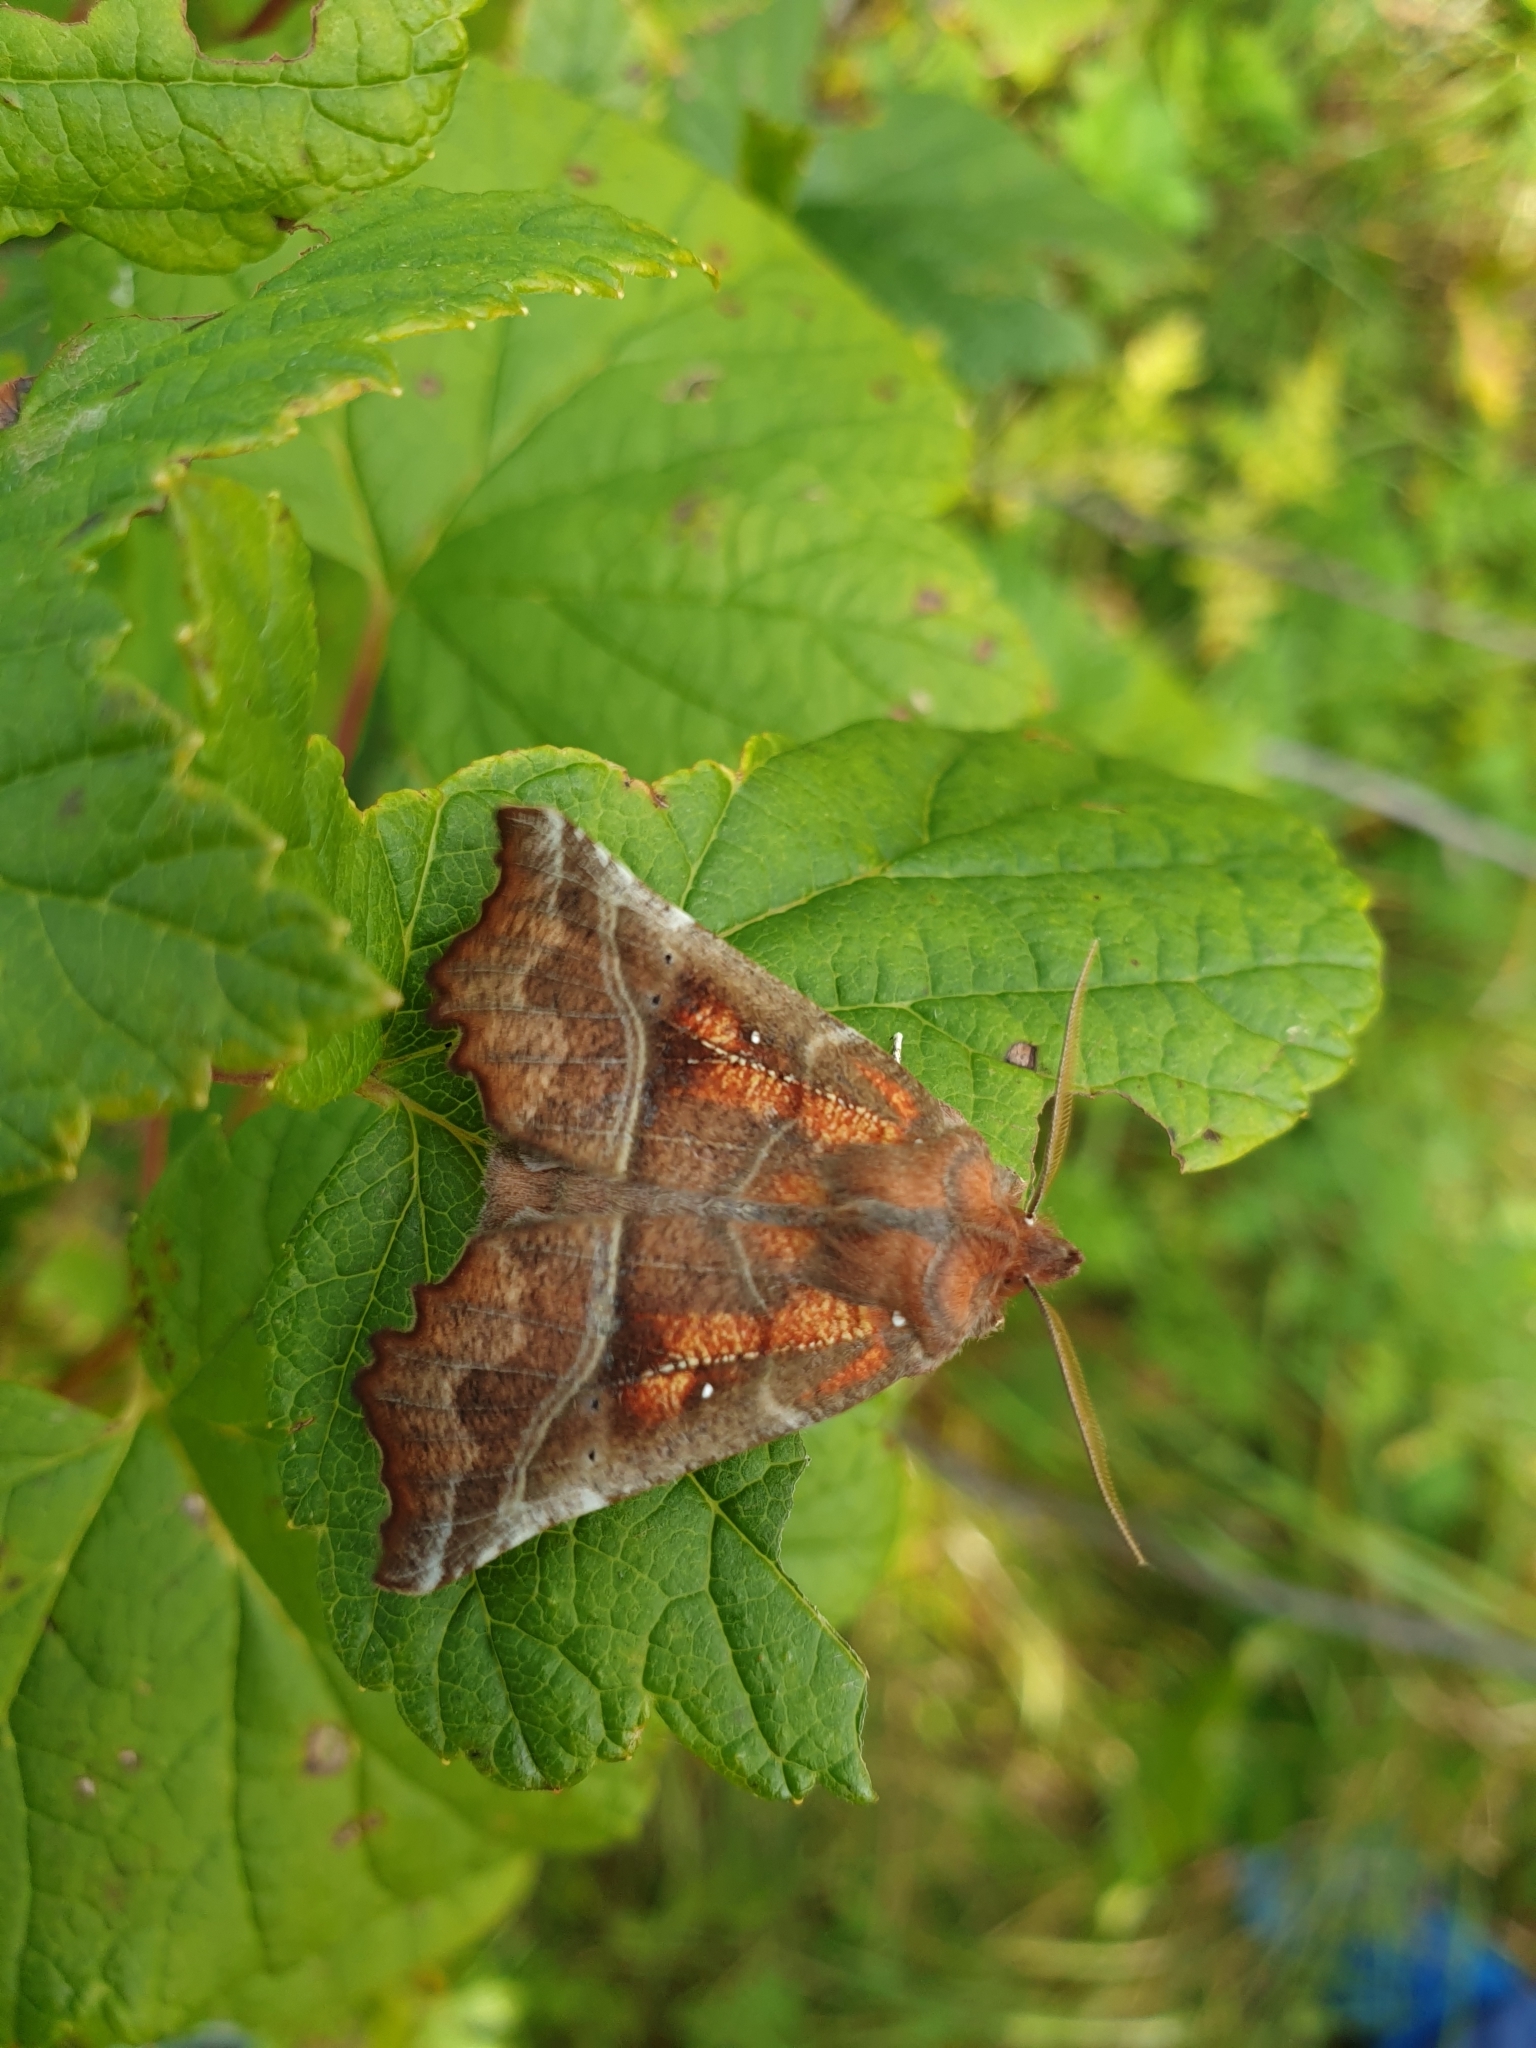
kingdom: Animalia
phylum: Arthropoda
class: Insecta
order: Lepidoptera
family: Erebidae
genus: Scoliopteryx
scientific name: Scoliopteryx libatrix
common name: Herald
